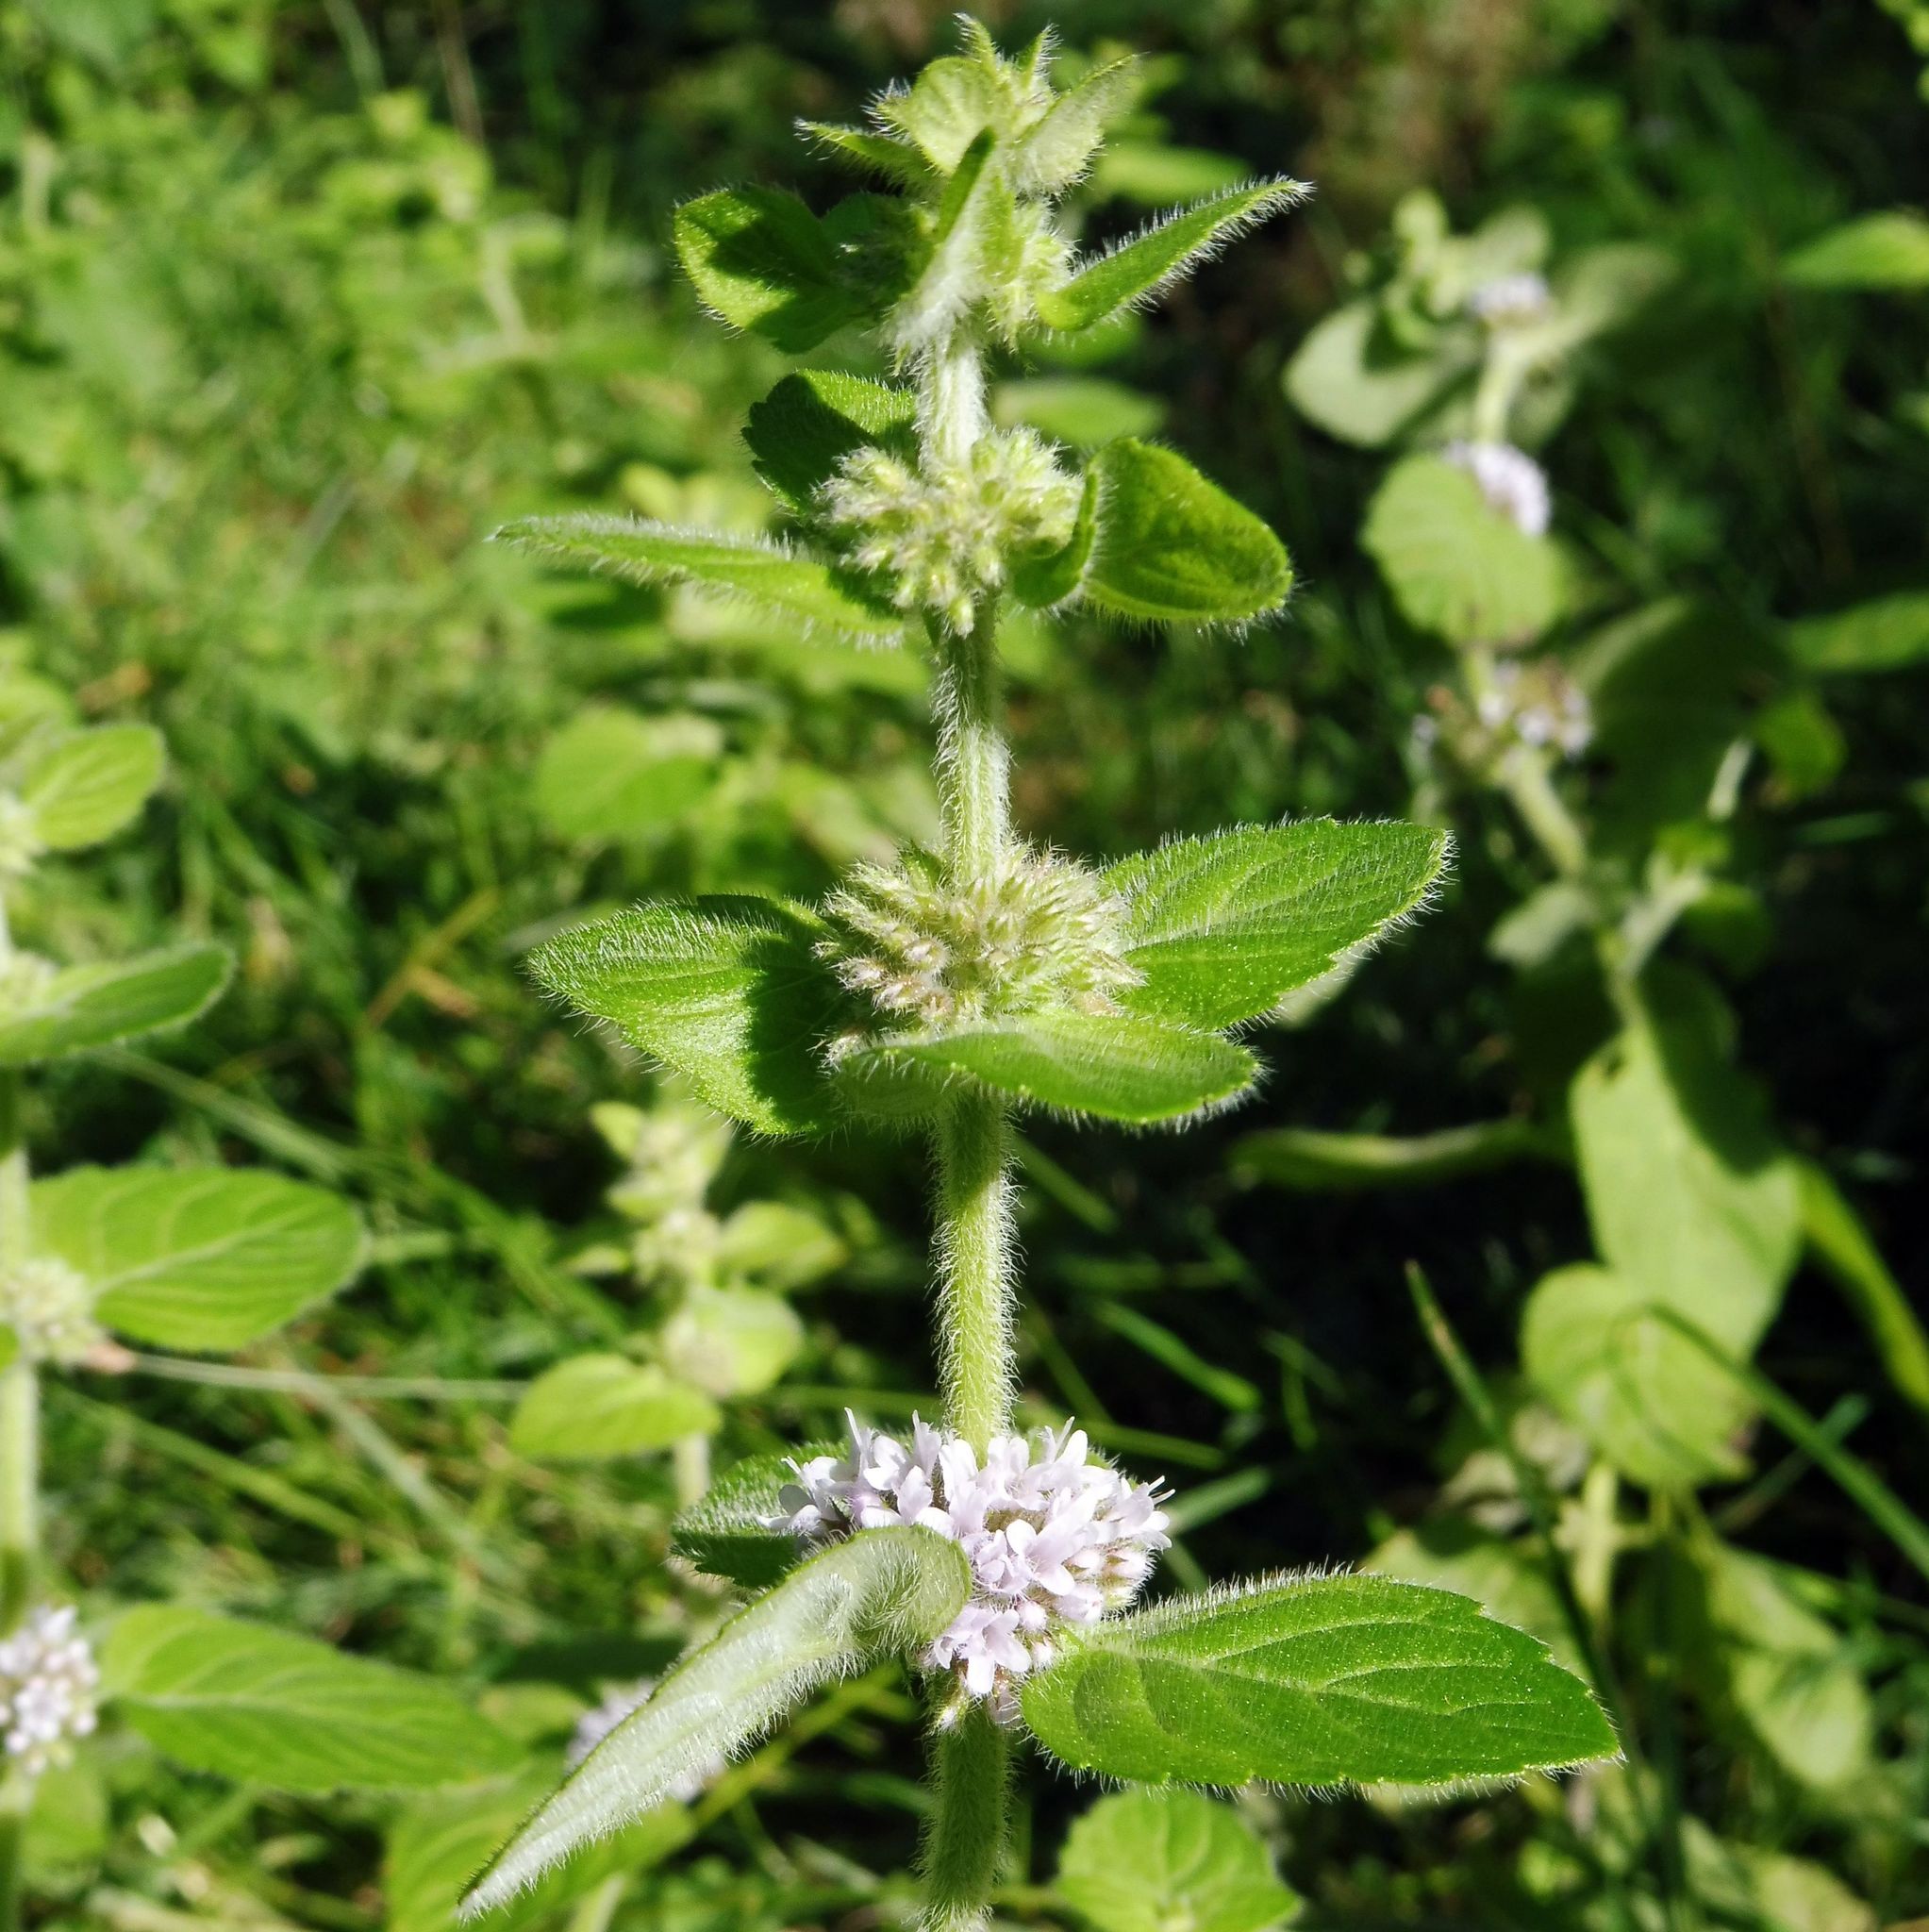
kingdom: Plantae
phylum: Tracheophyta
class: Magnoliopsida
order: Lamiales
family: Lamiaceae
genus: Mentha
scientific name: Mentha verticillata
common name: Mint
